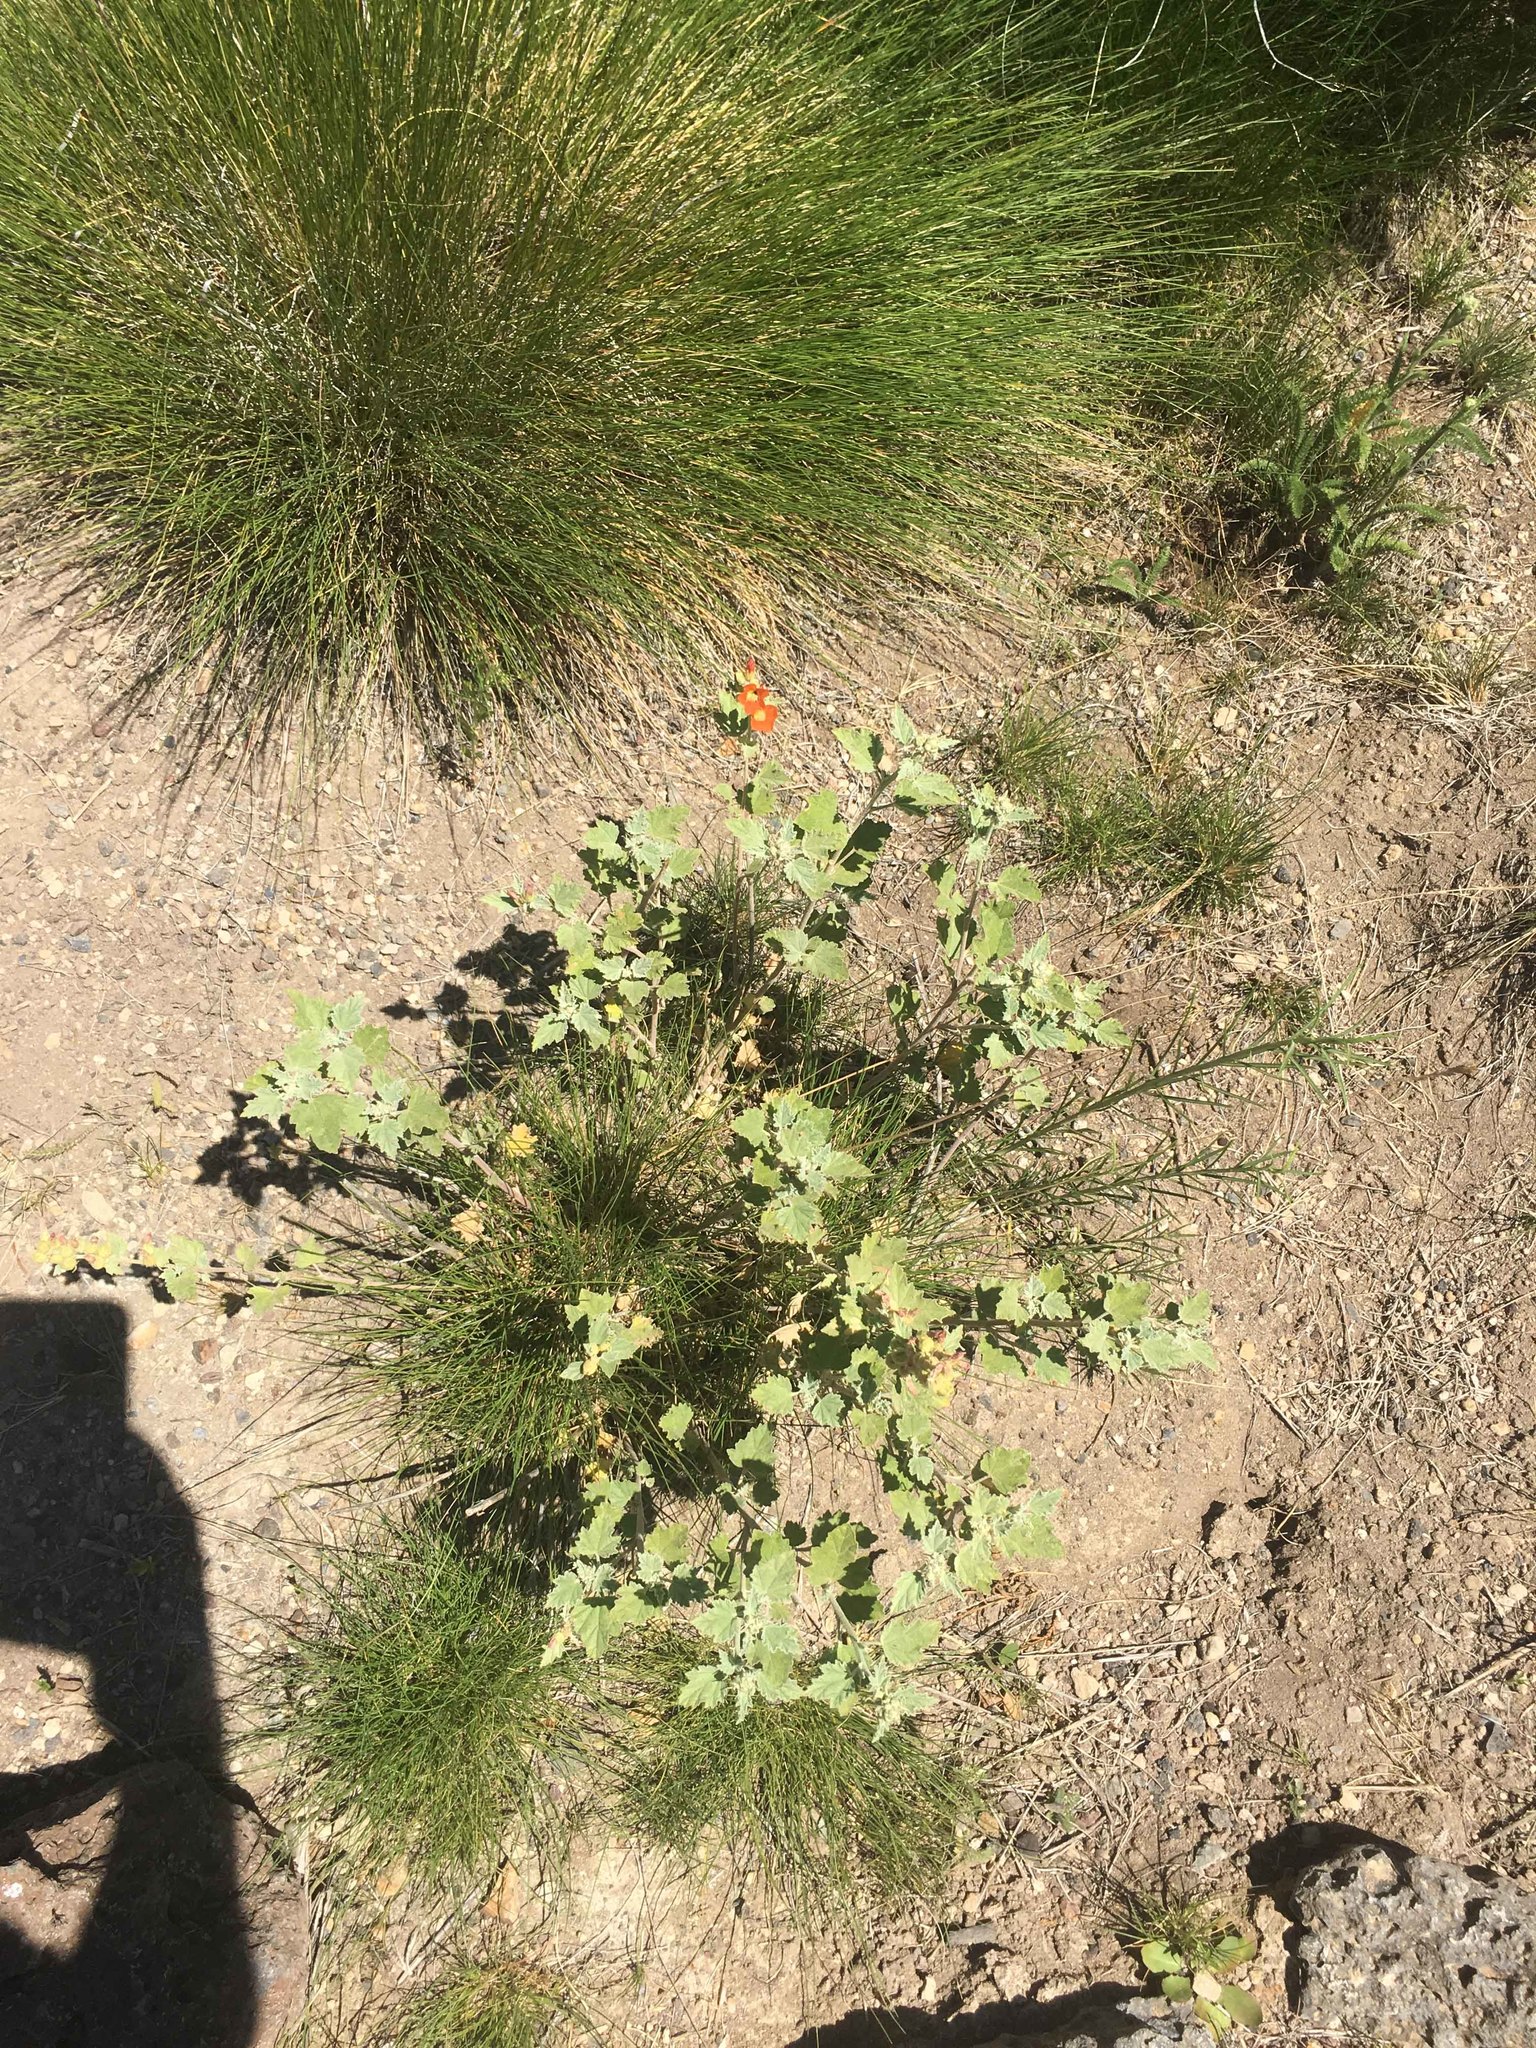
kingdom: Plantae
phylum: Tracheophyta
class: Magnoliopsida
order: Malvales
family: Malvaceae
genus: Sphaeralcea
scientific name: Sphaeralcea munroana
